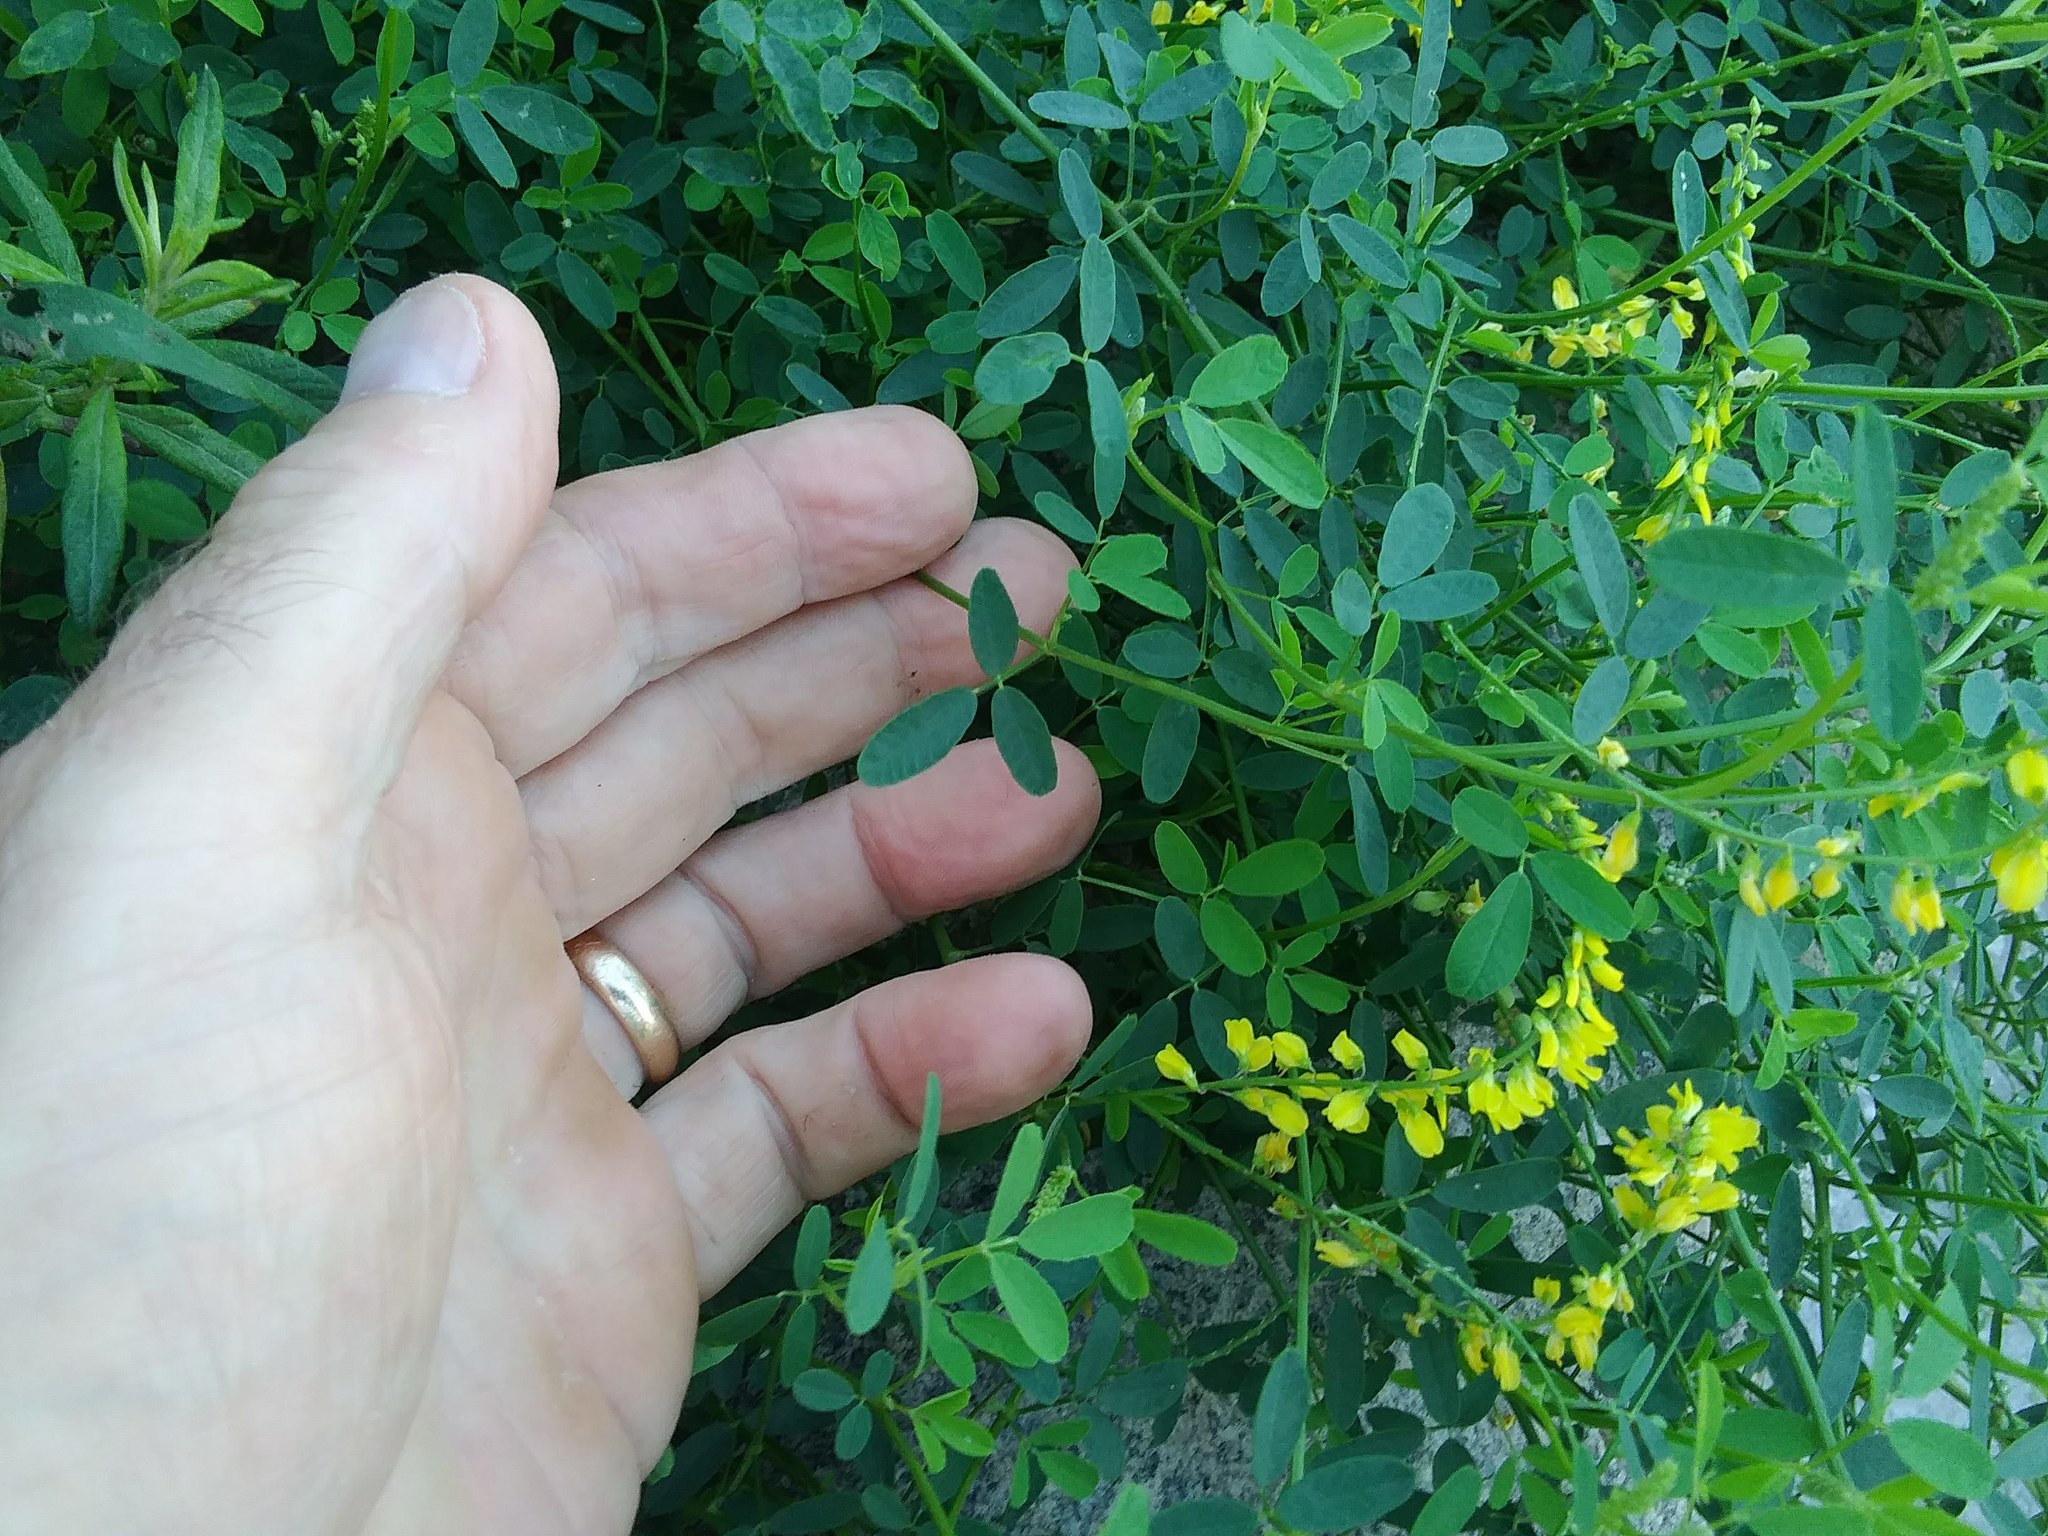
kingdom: Plantae
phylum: Tracheophyta
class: Magnoliopsida
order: Fabales
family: Fabaceae
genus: Melilotus
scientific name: Melilotus officinalis
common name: Sweetclover
